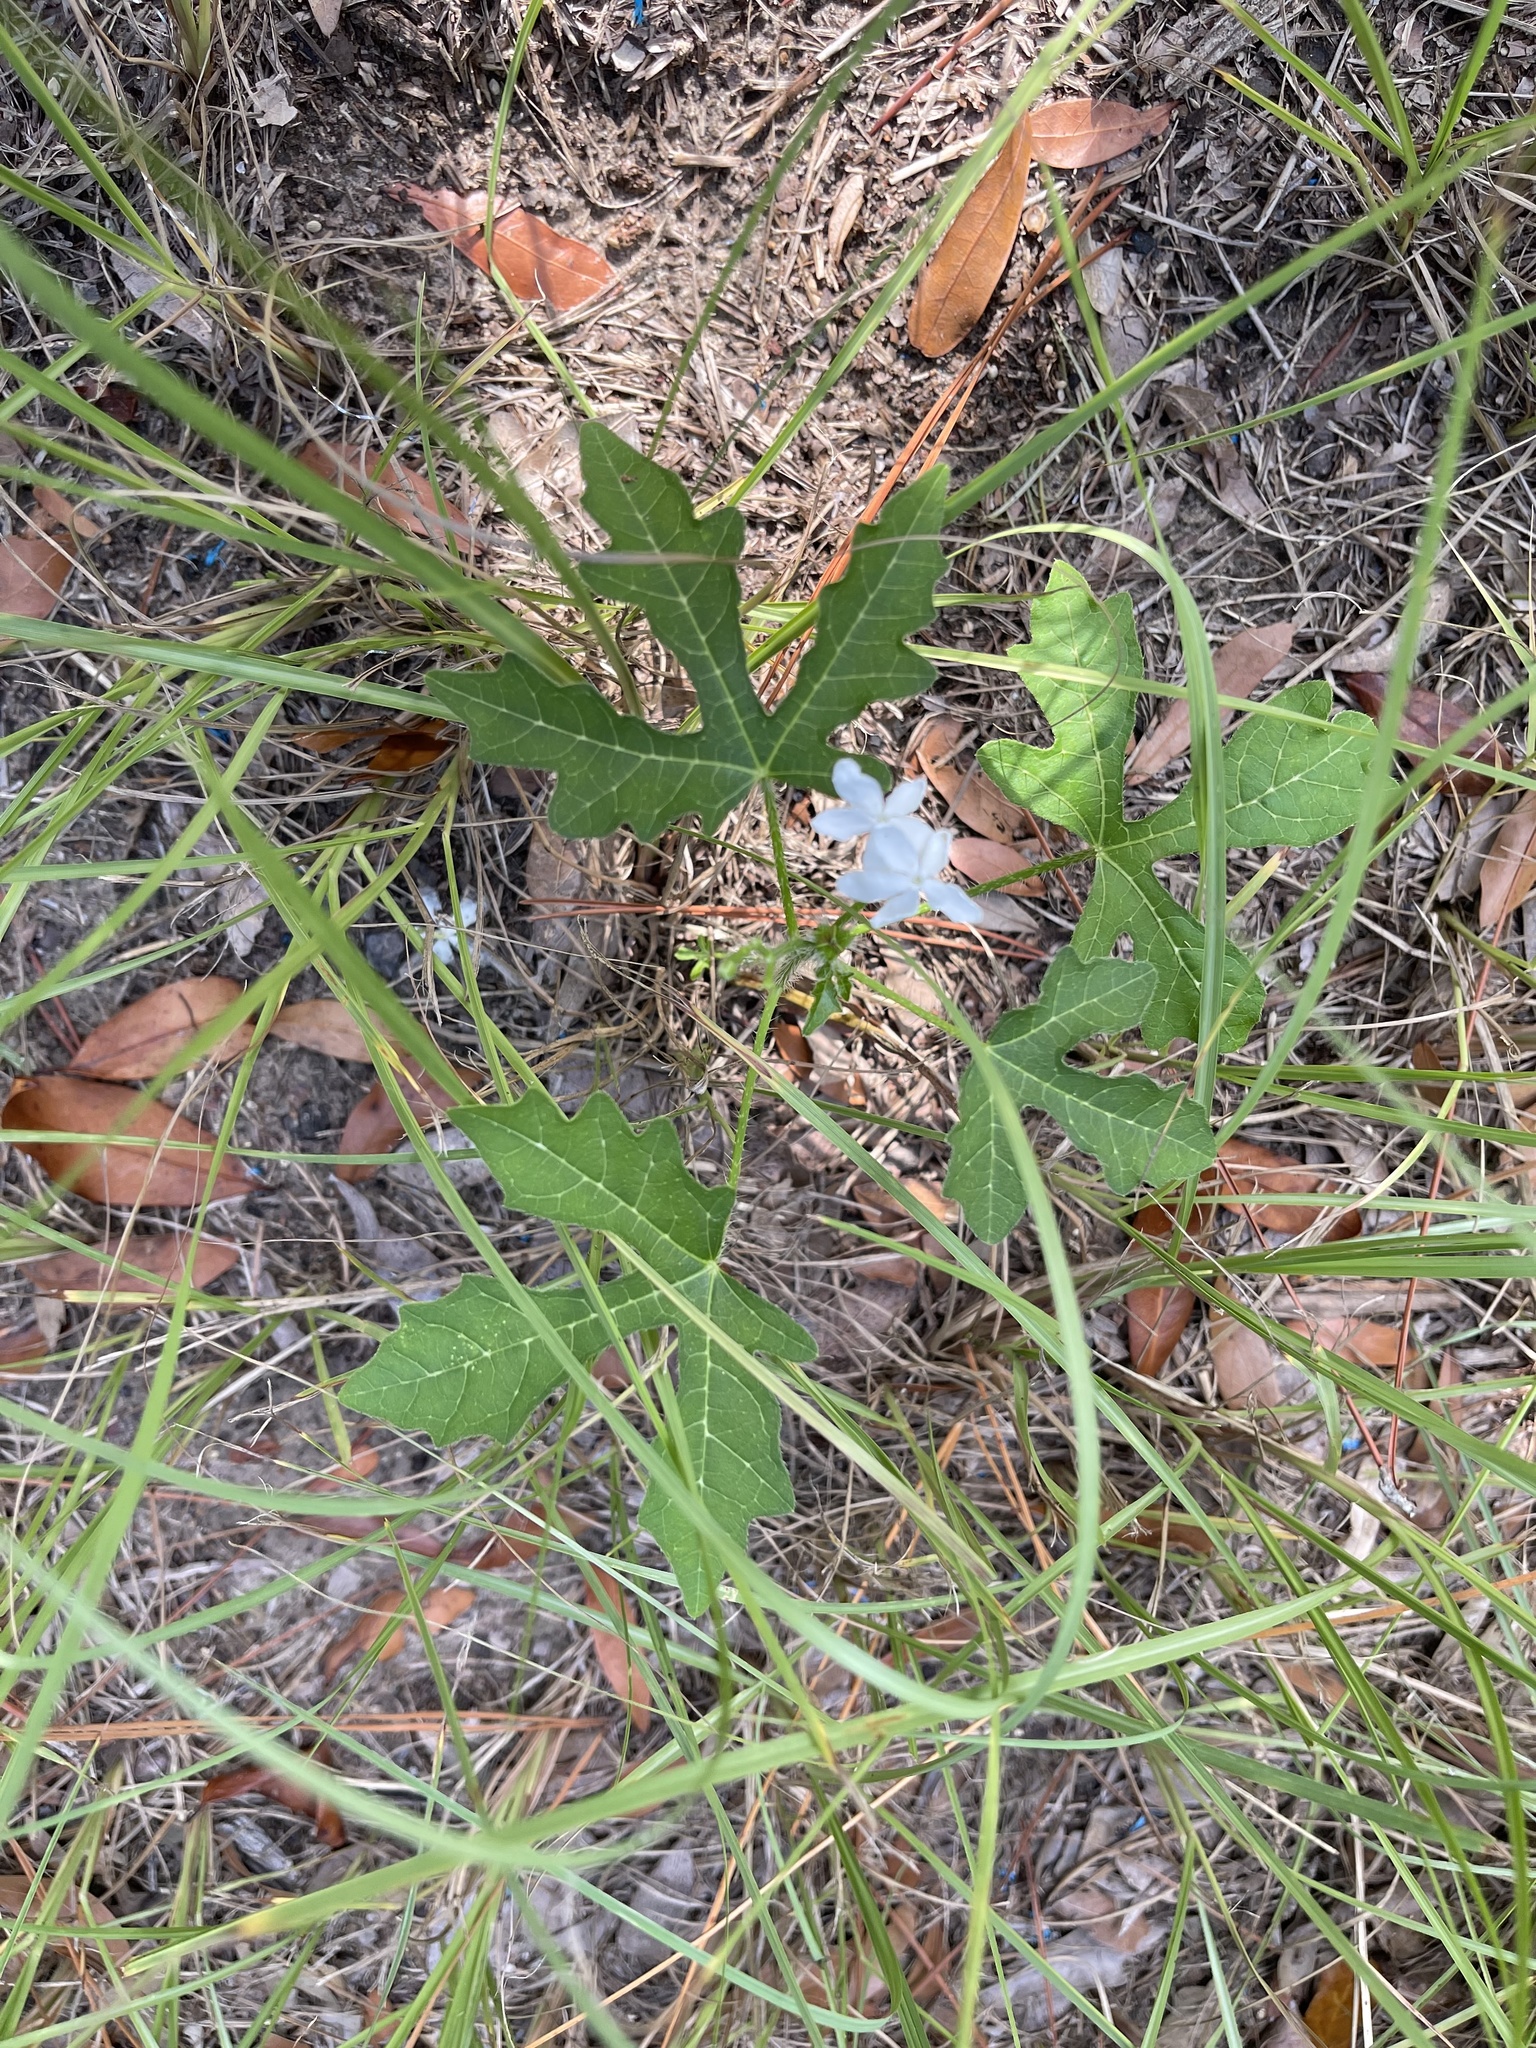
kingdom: Plantae
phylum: Tracheophyta
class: Magnoliopsida
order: Malpighiales
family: Euphorbiaceae
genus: Cnidoscolus
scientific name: Cnidoscolus stimulosus
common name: Bull-nettle
